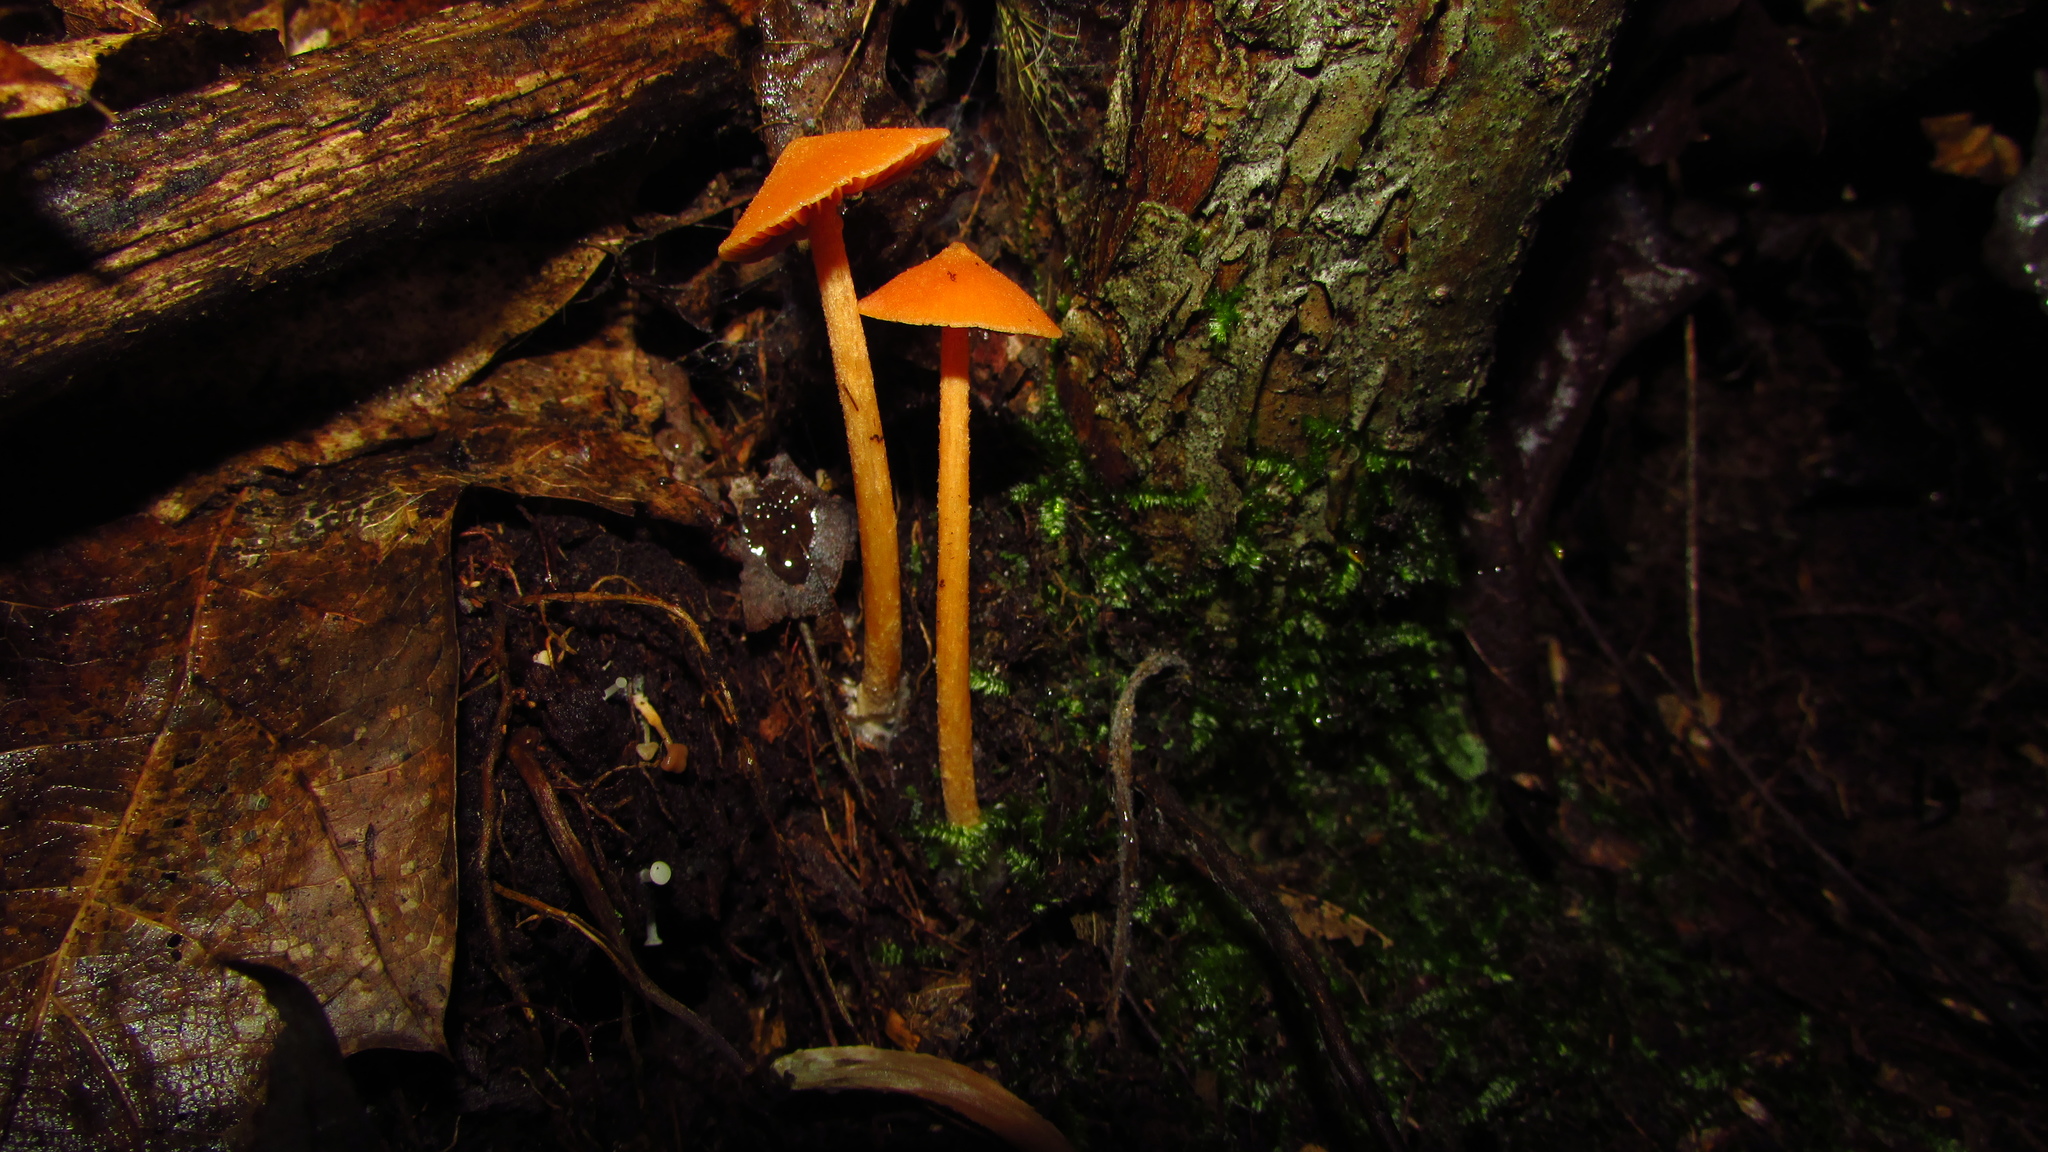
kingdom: Fungi
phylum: Basidiomycota
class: Agaricomycetes
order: Agaricales
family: Entolomataceae
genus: Entoloma
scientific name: Entoloma quadratum
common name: Salmon pinkgill
